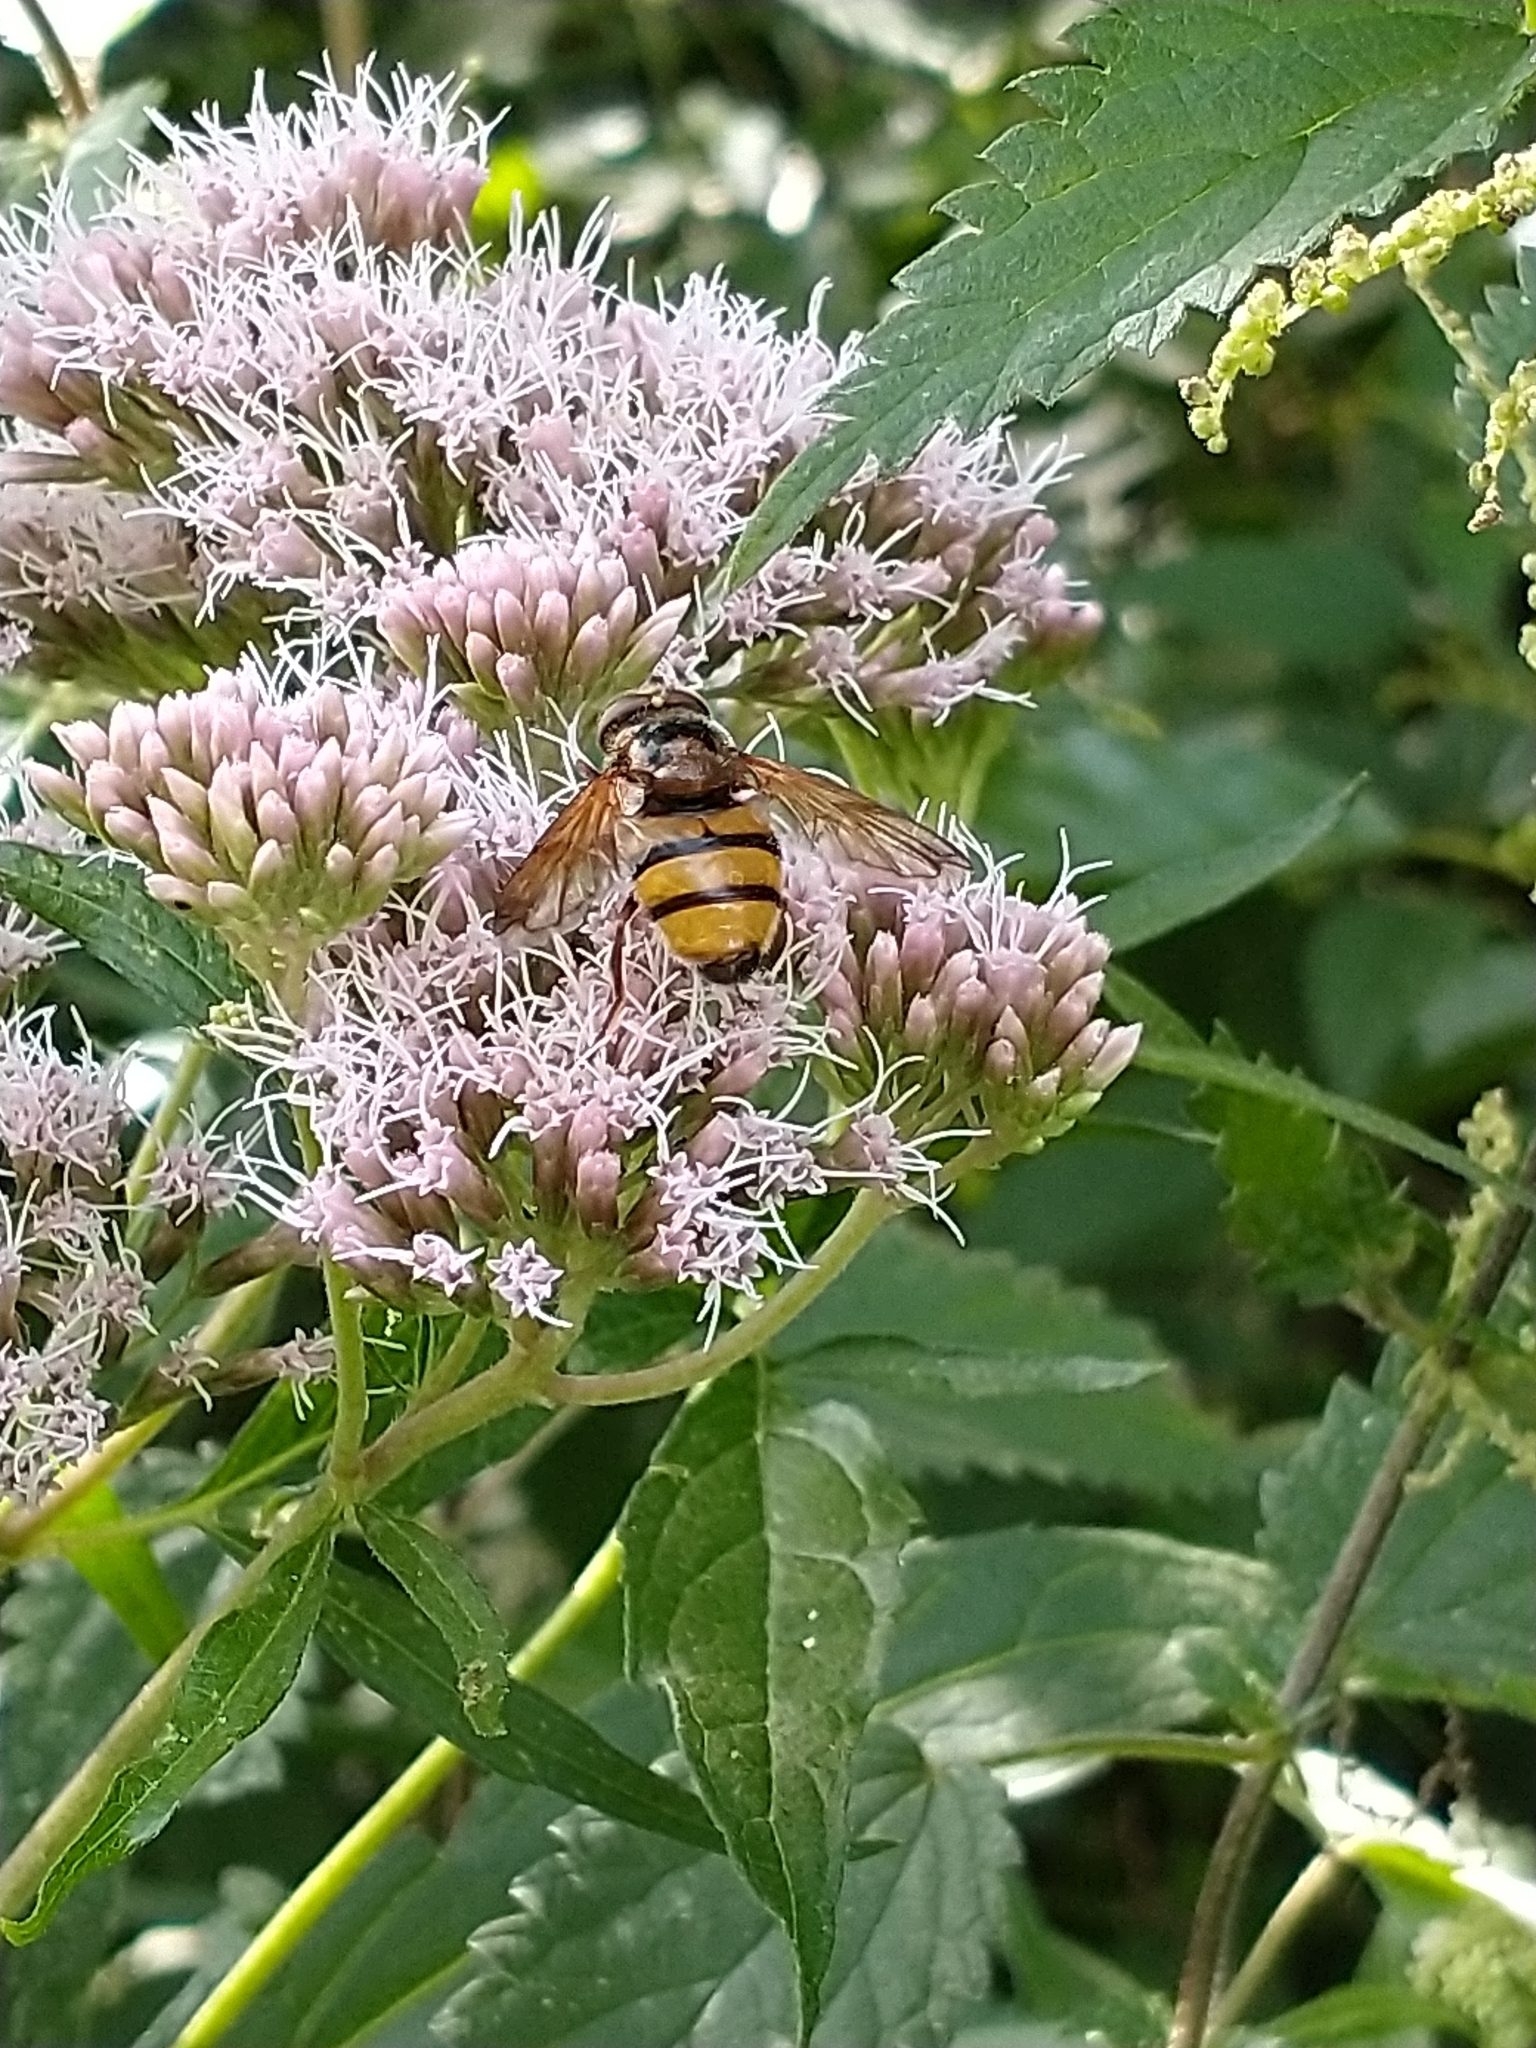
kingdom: Animalia
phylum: Arthropoda
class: Insecta
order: Diptera
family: Syrphidae
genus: Volucella
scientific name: Volucella inanis
